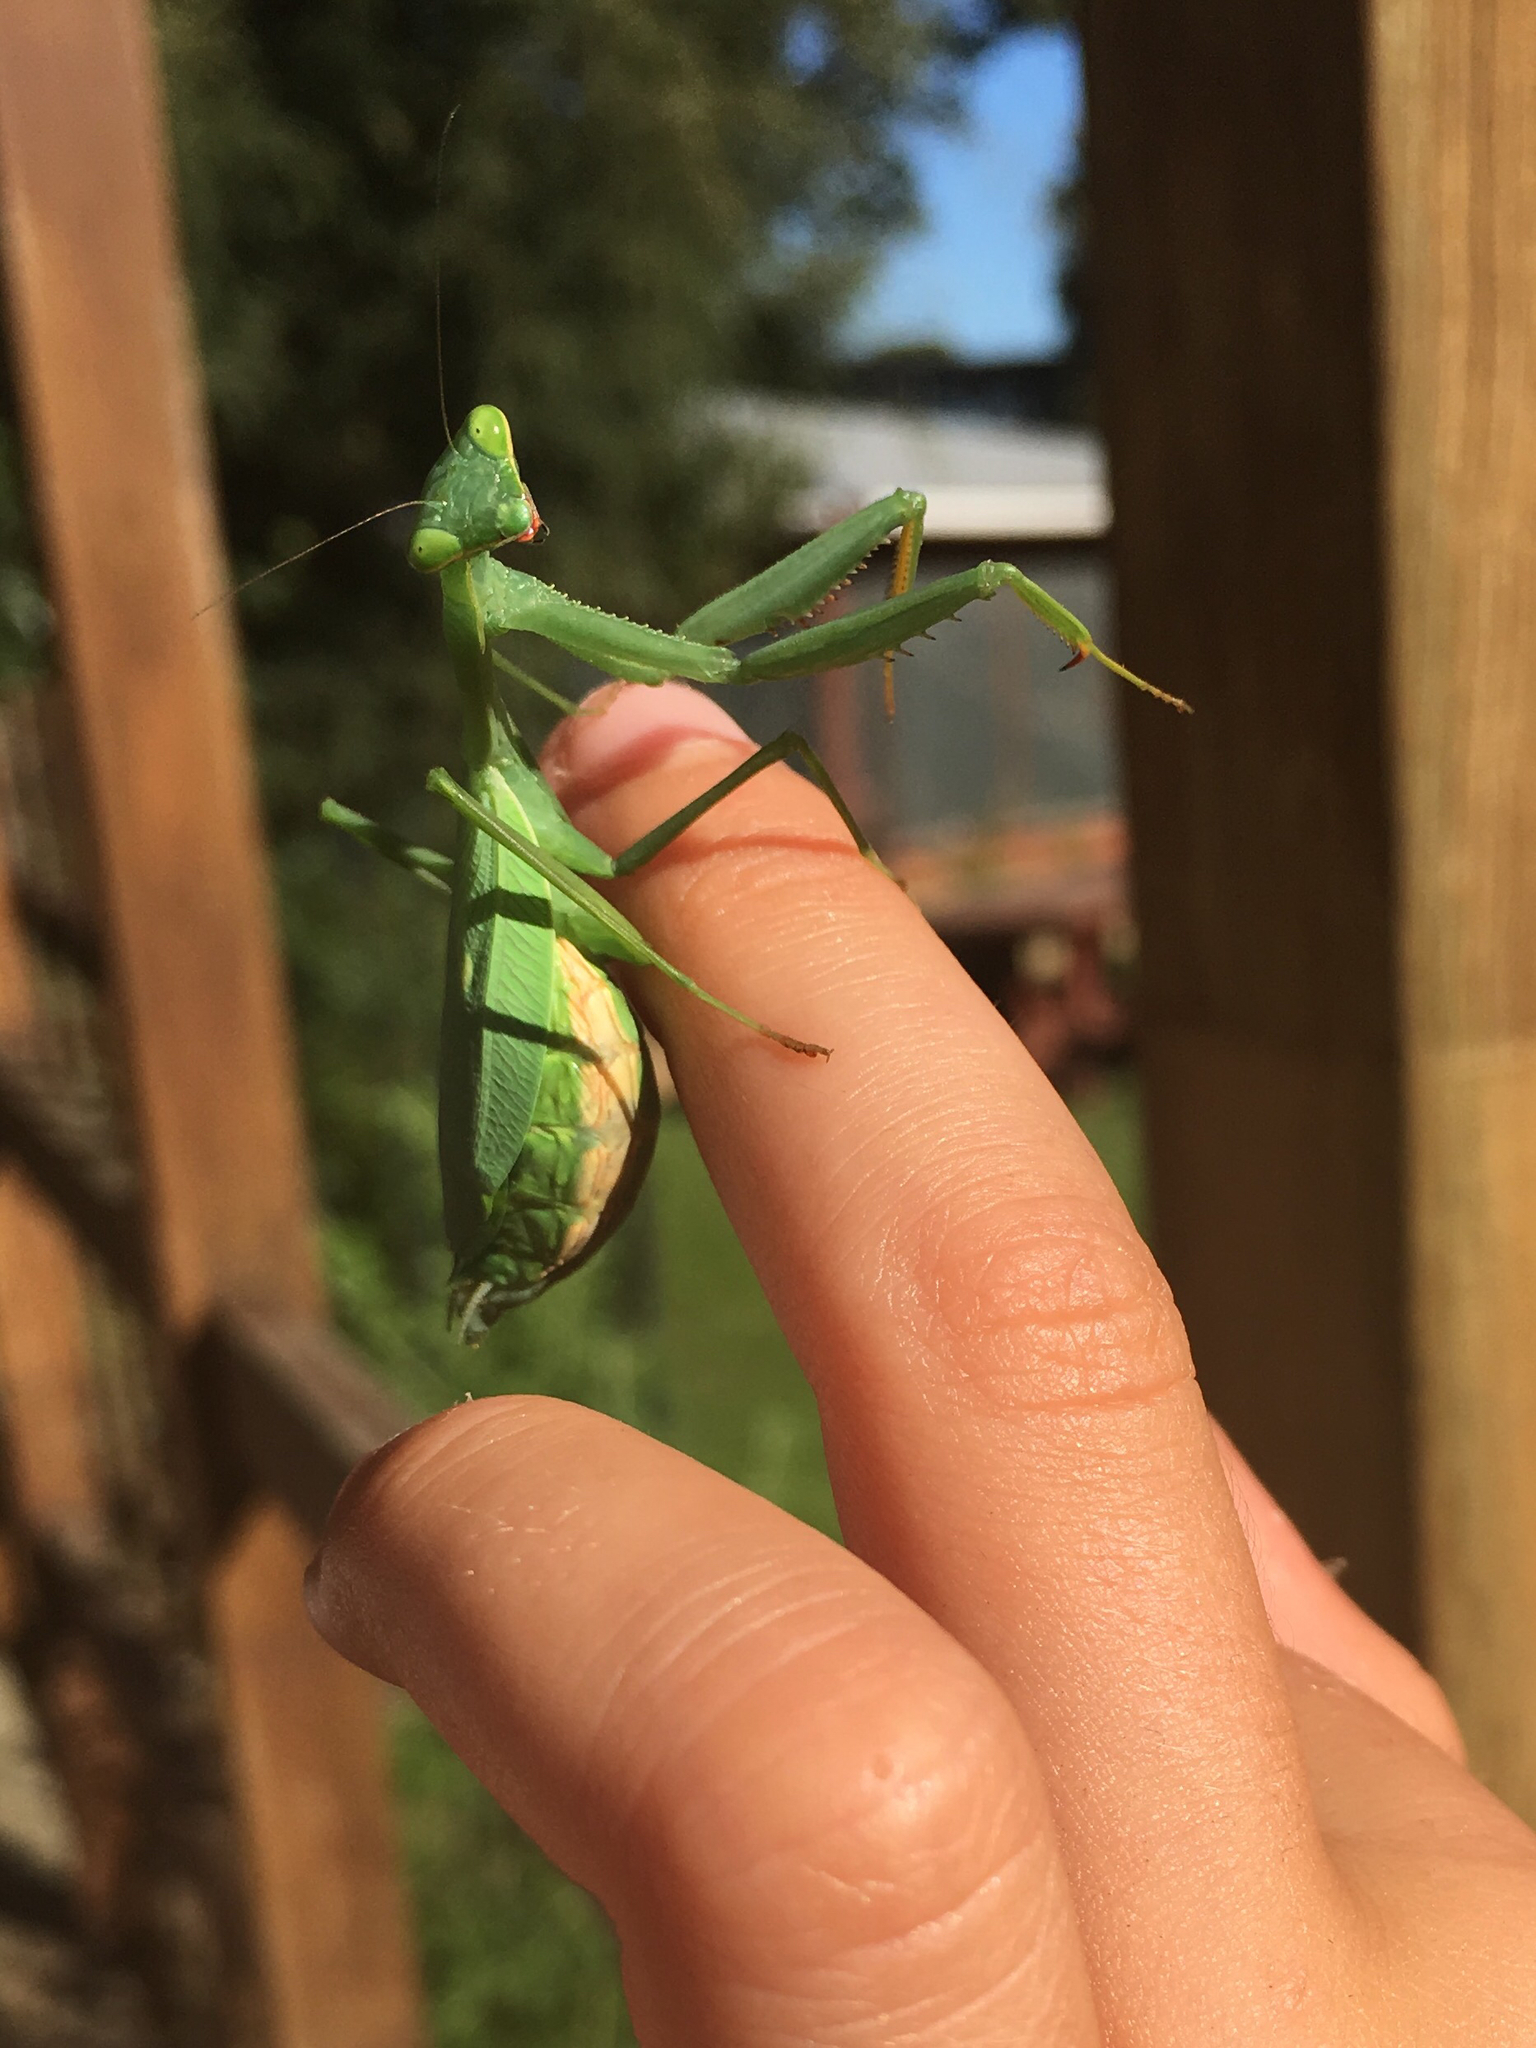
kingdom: Animalia
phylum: Arthropoda
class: Insecta
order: Mantodea
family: Miomantidae
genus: Miomantis
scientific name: Miomantis caffra
